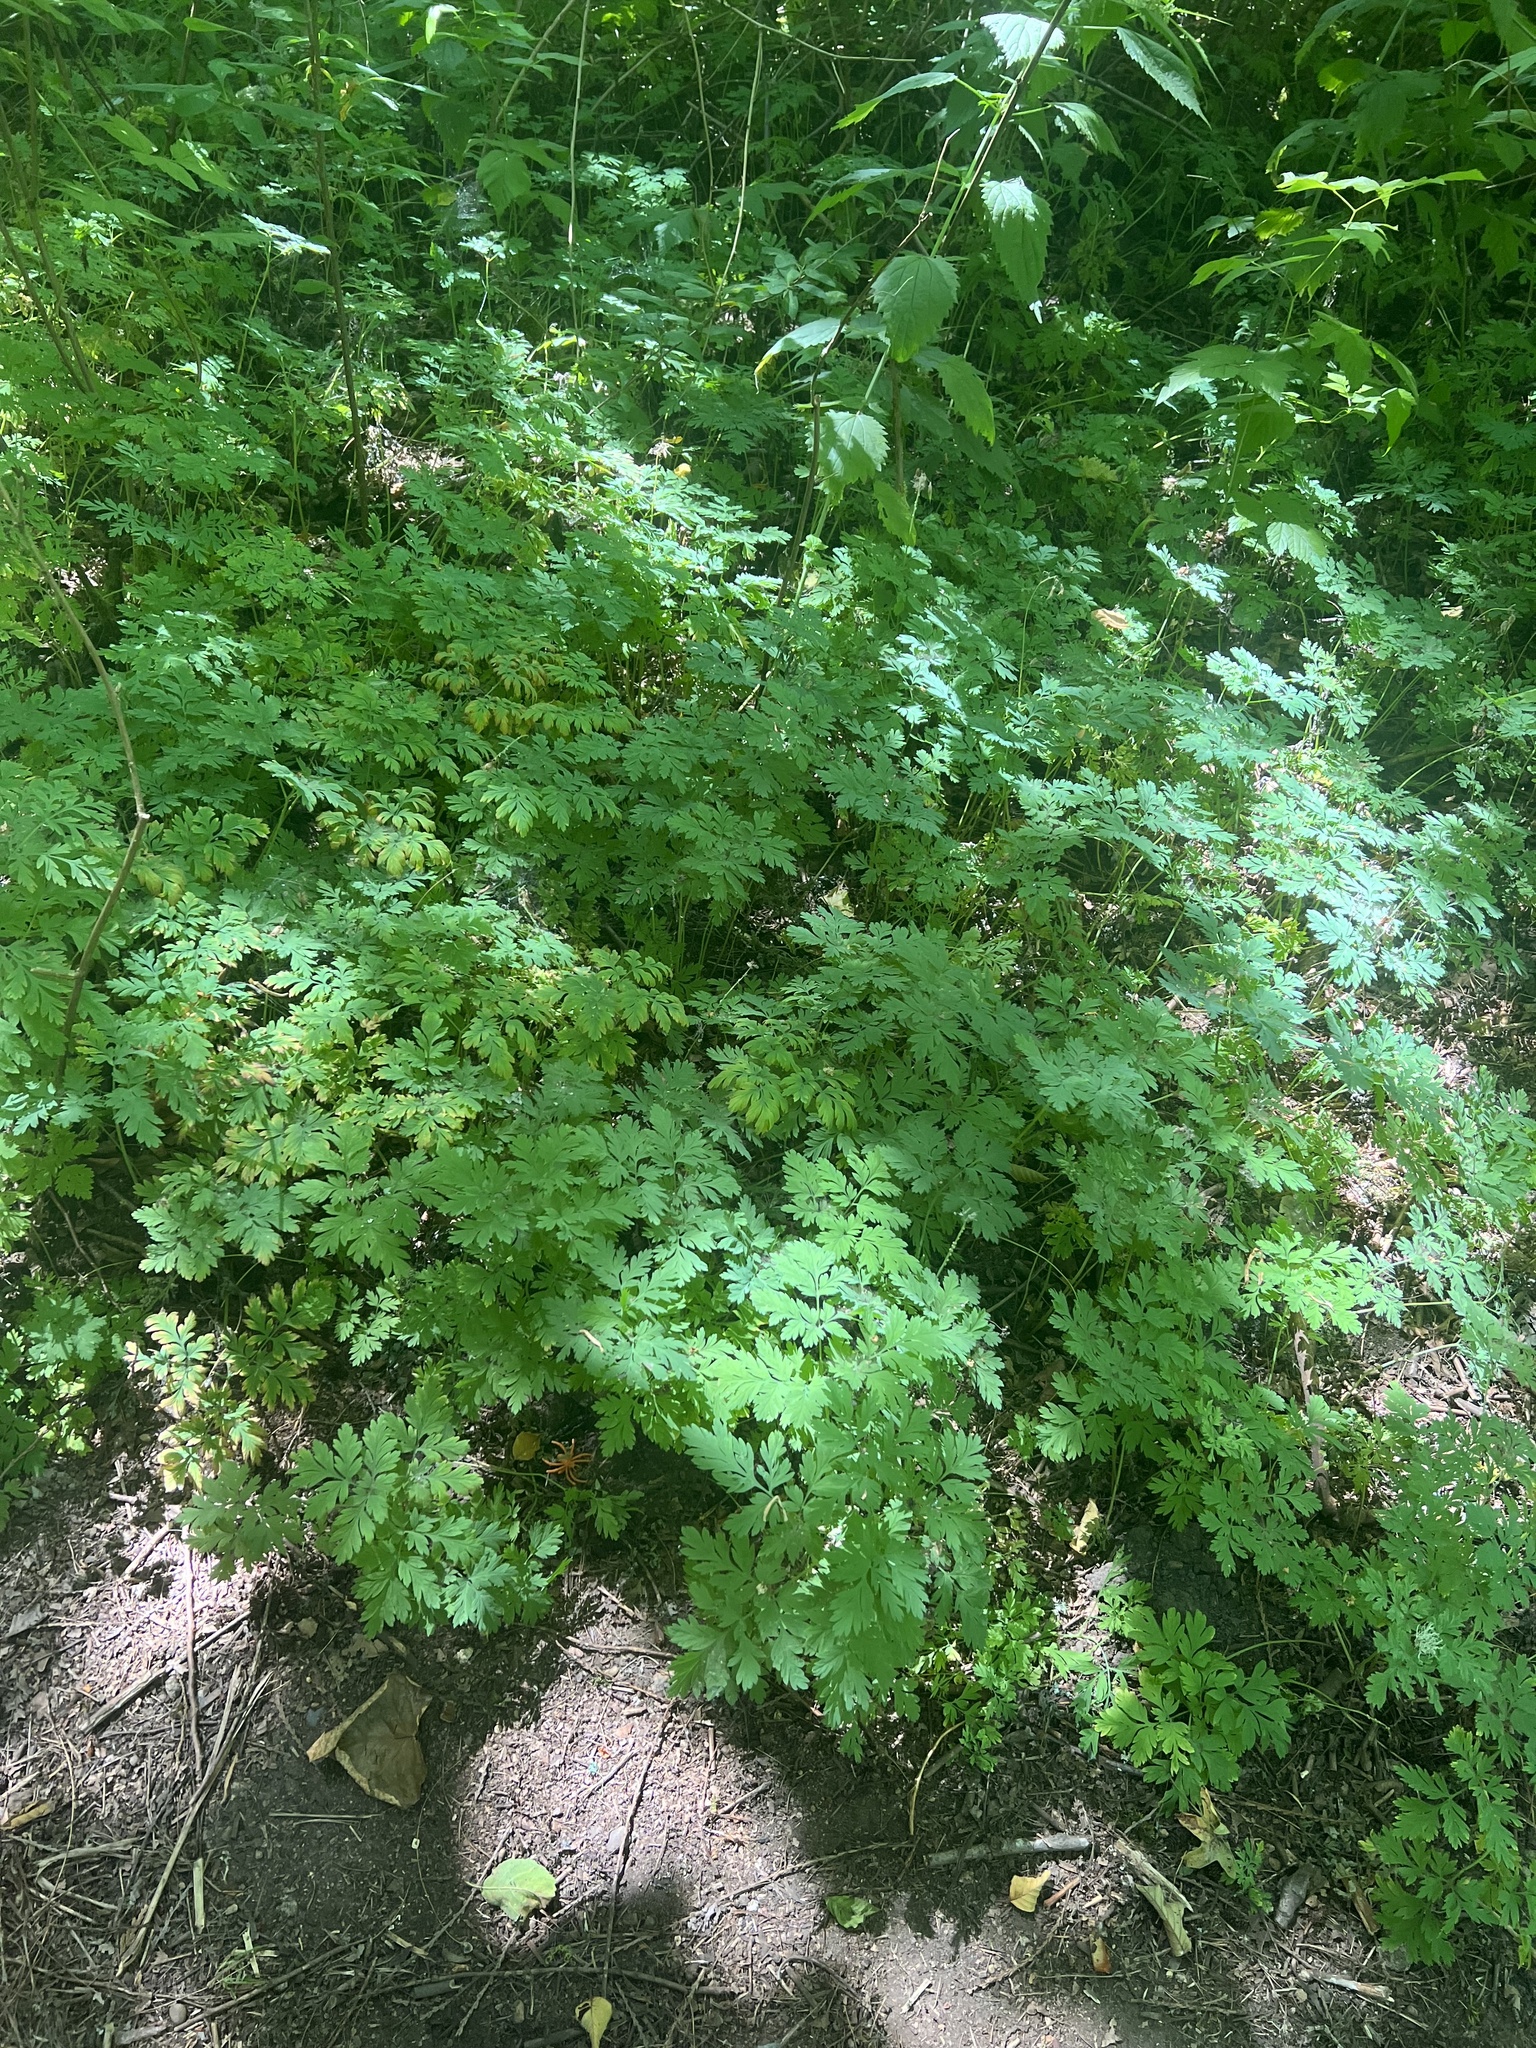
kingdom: Plantae
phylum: Tracheophyta
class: Magnoliopsida
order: Ranunculales
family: Papaveraceae
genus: Dicentra
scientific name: Dicentra formosa
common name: Bleeding-heart
